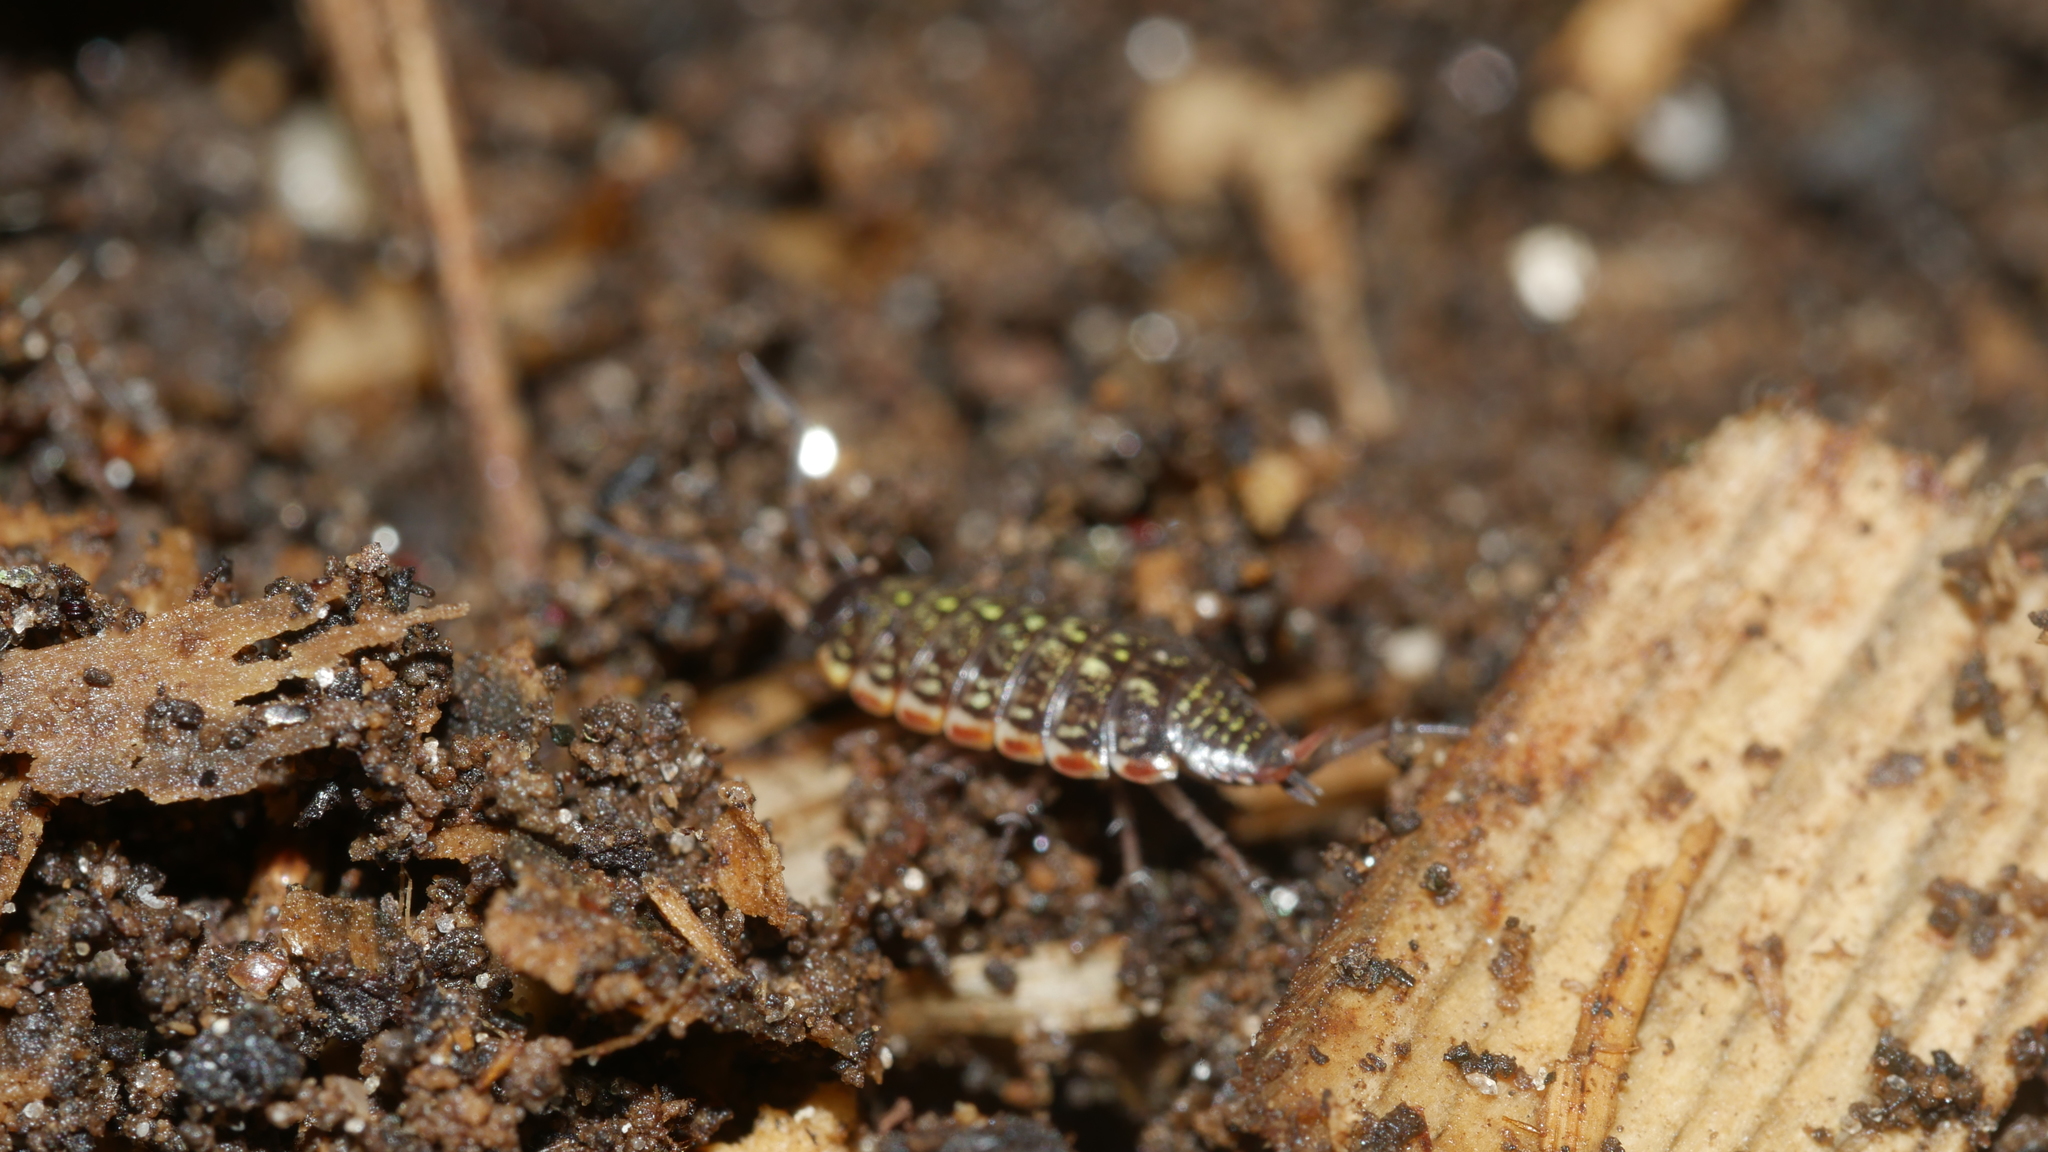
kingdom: Animalia
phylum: Arthropoda
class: Malacostraca
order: Isopoda
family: Philosciidae
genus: Philoscia
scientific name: Philoscia muscorum
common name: Common striped woodlouse
